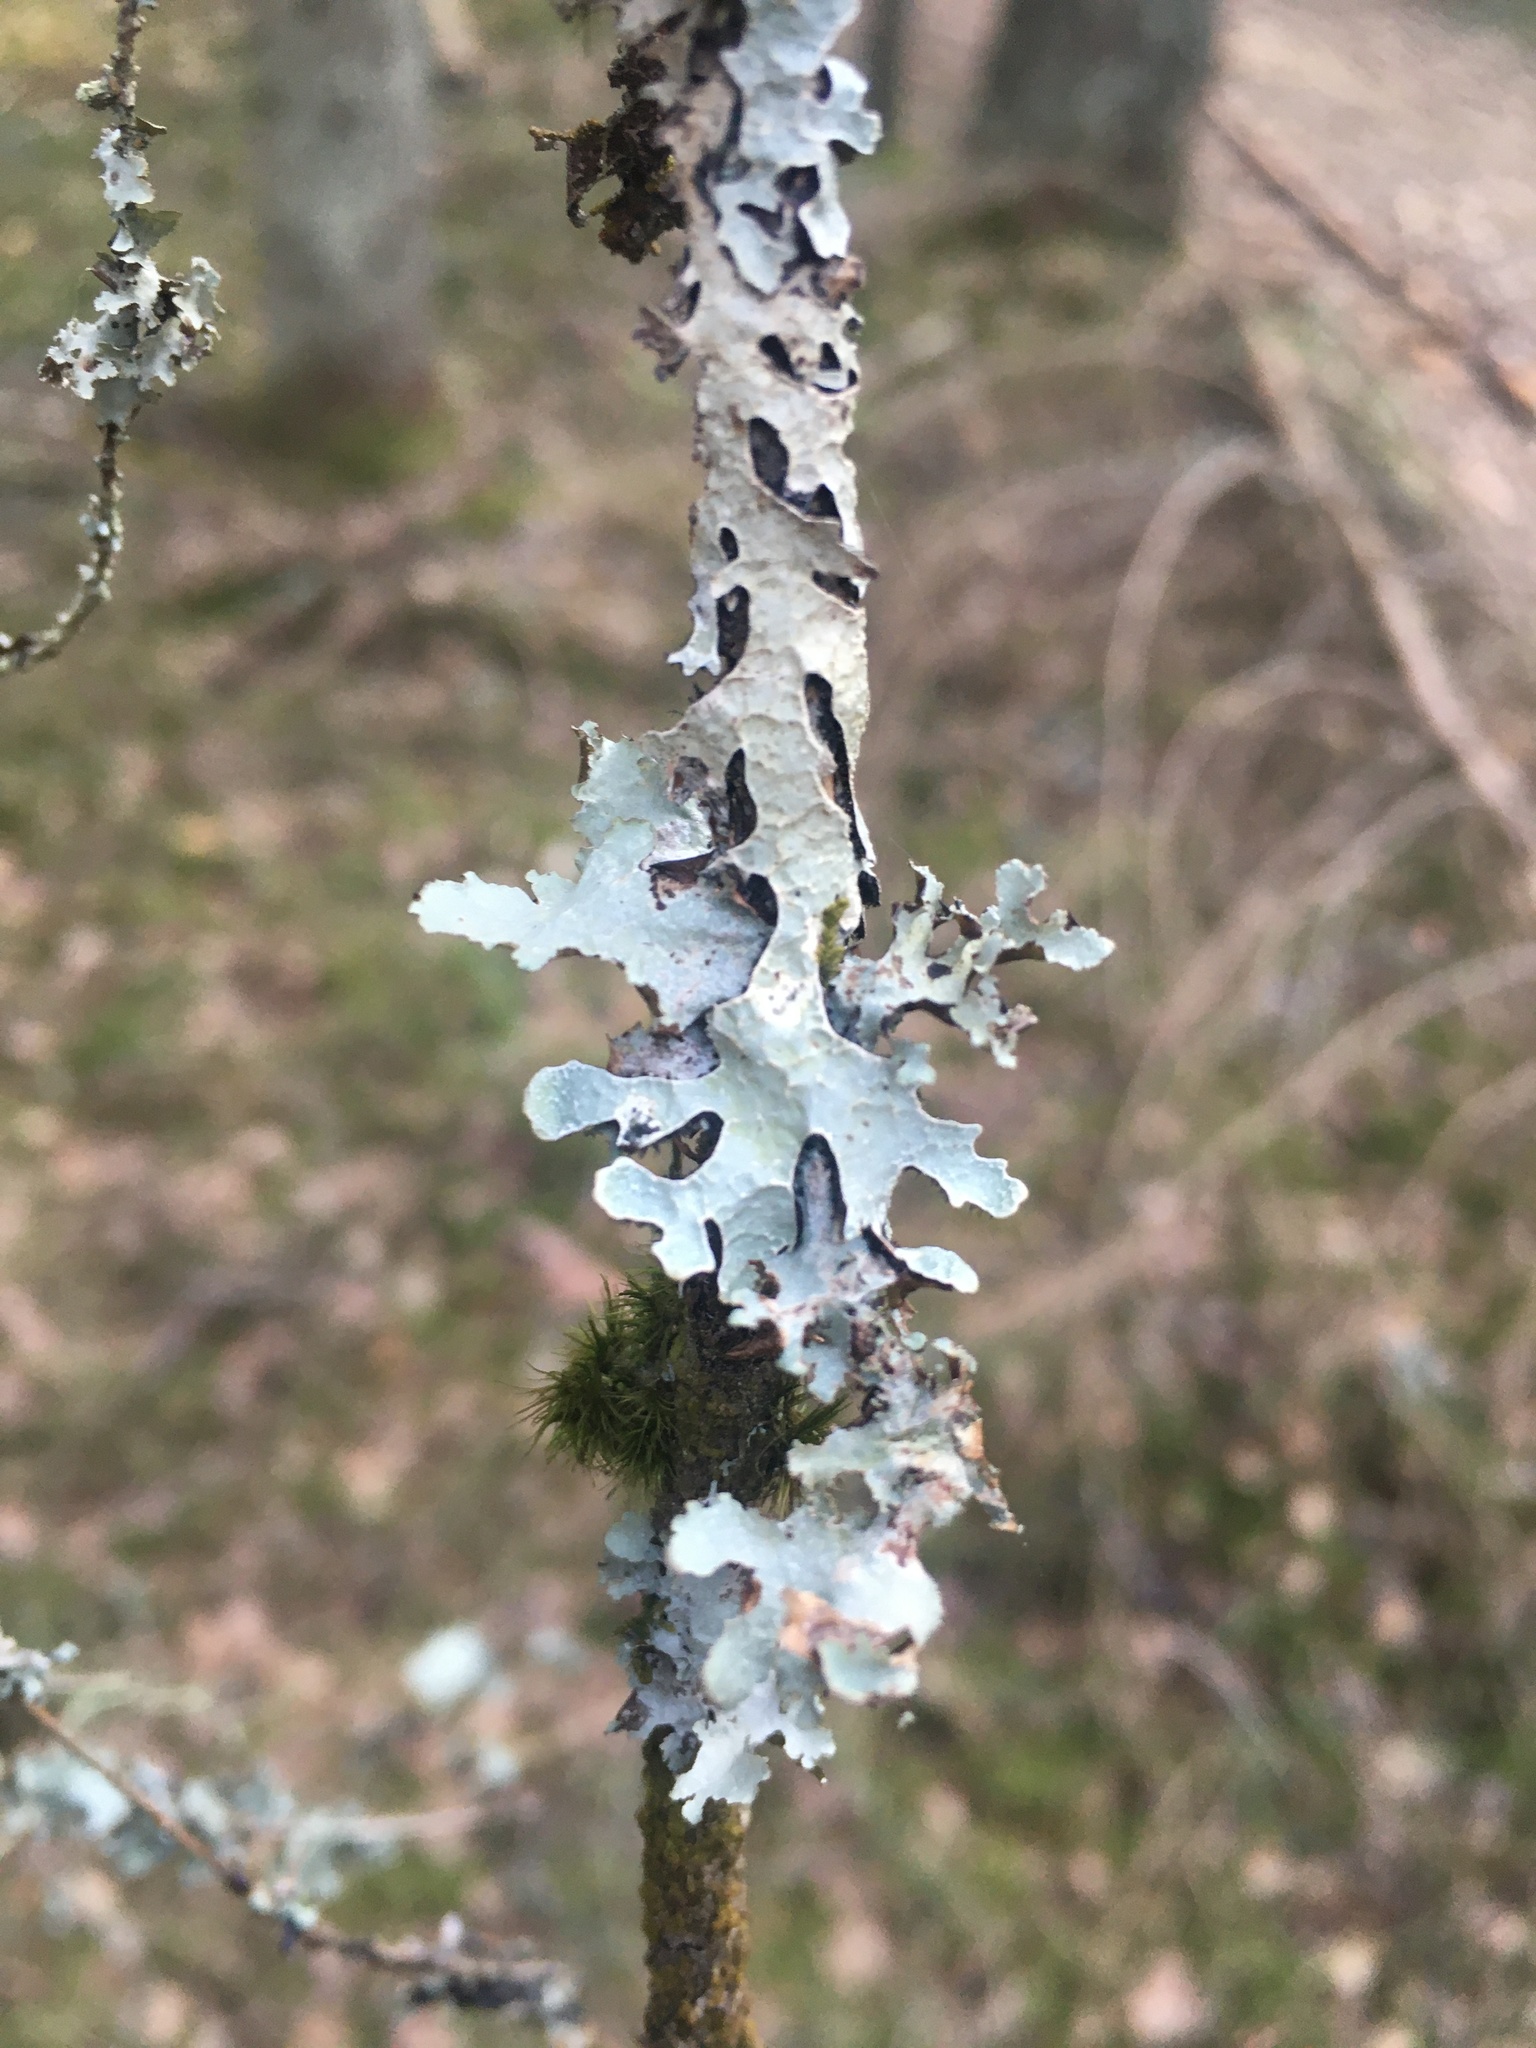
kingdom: Fungi
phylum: Ascomycota
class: Lecanoromycetes
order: Lecanorales
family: Parmeliaceae
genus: Parmelia
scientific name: Parmelia sulcata
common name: Netted shield lichen
